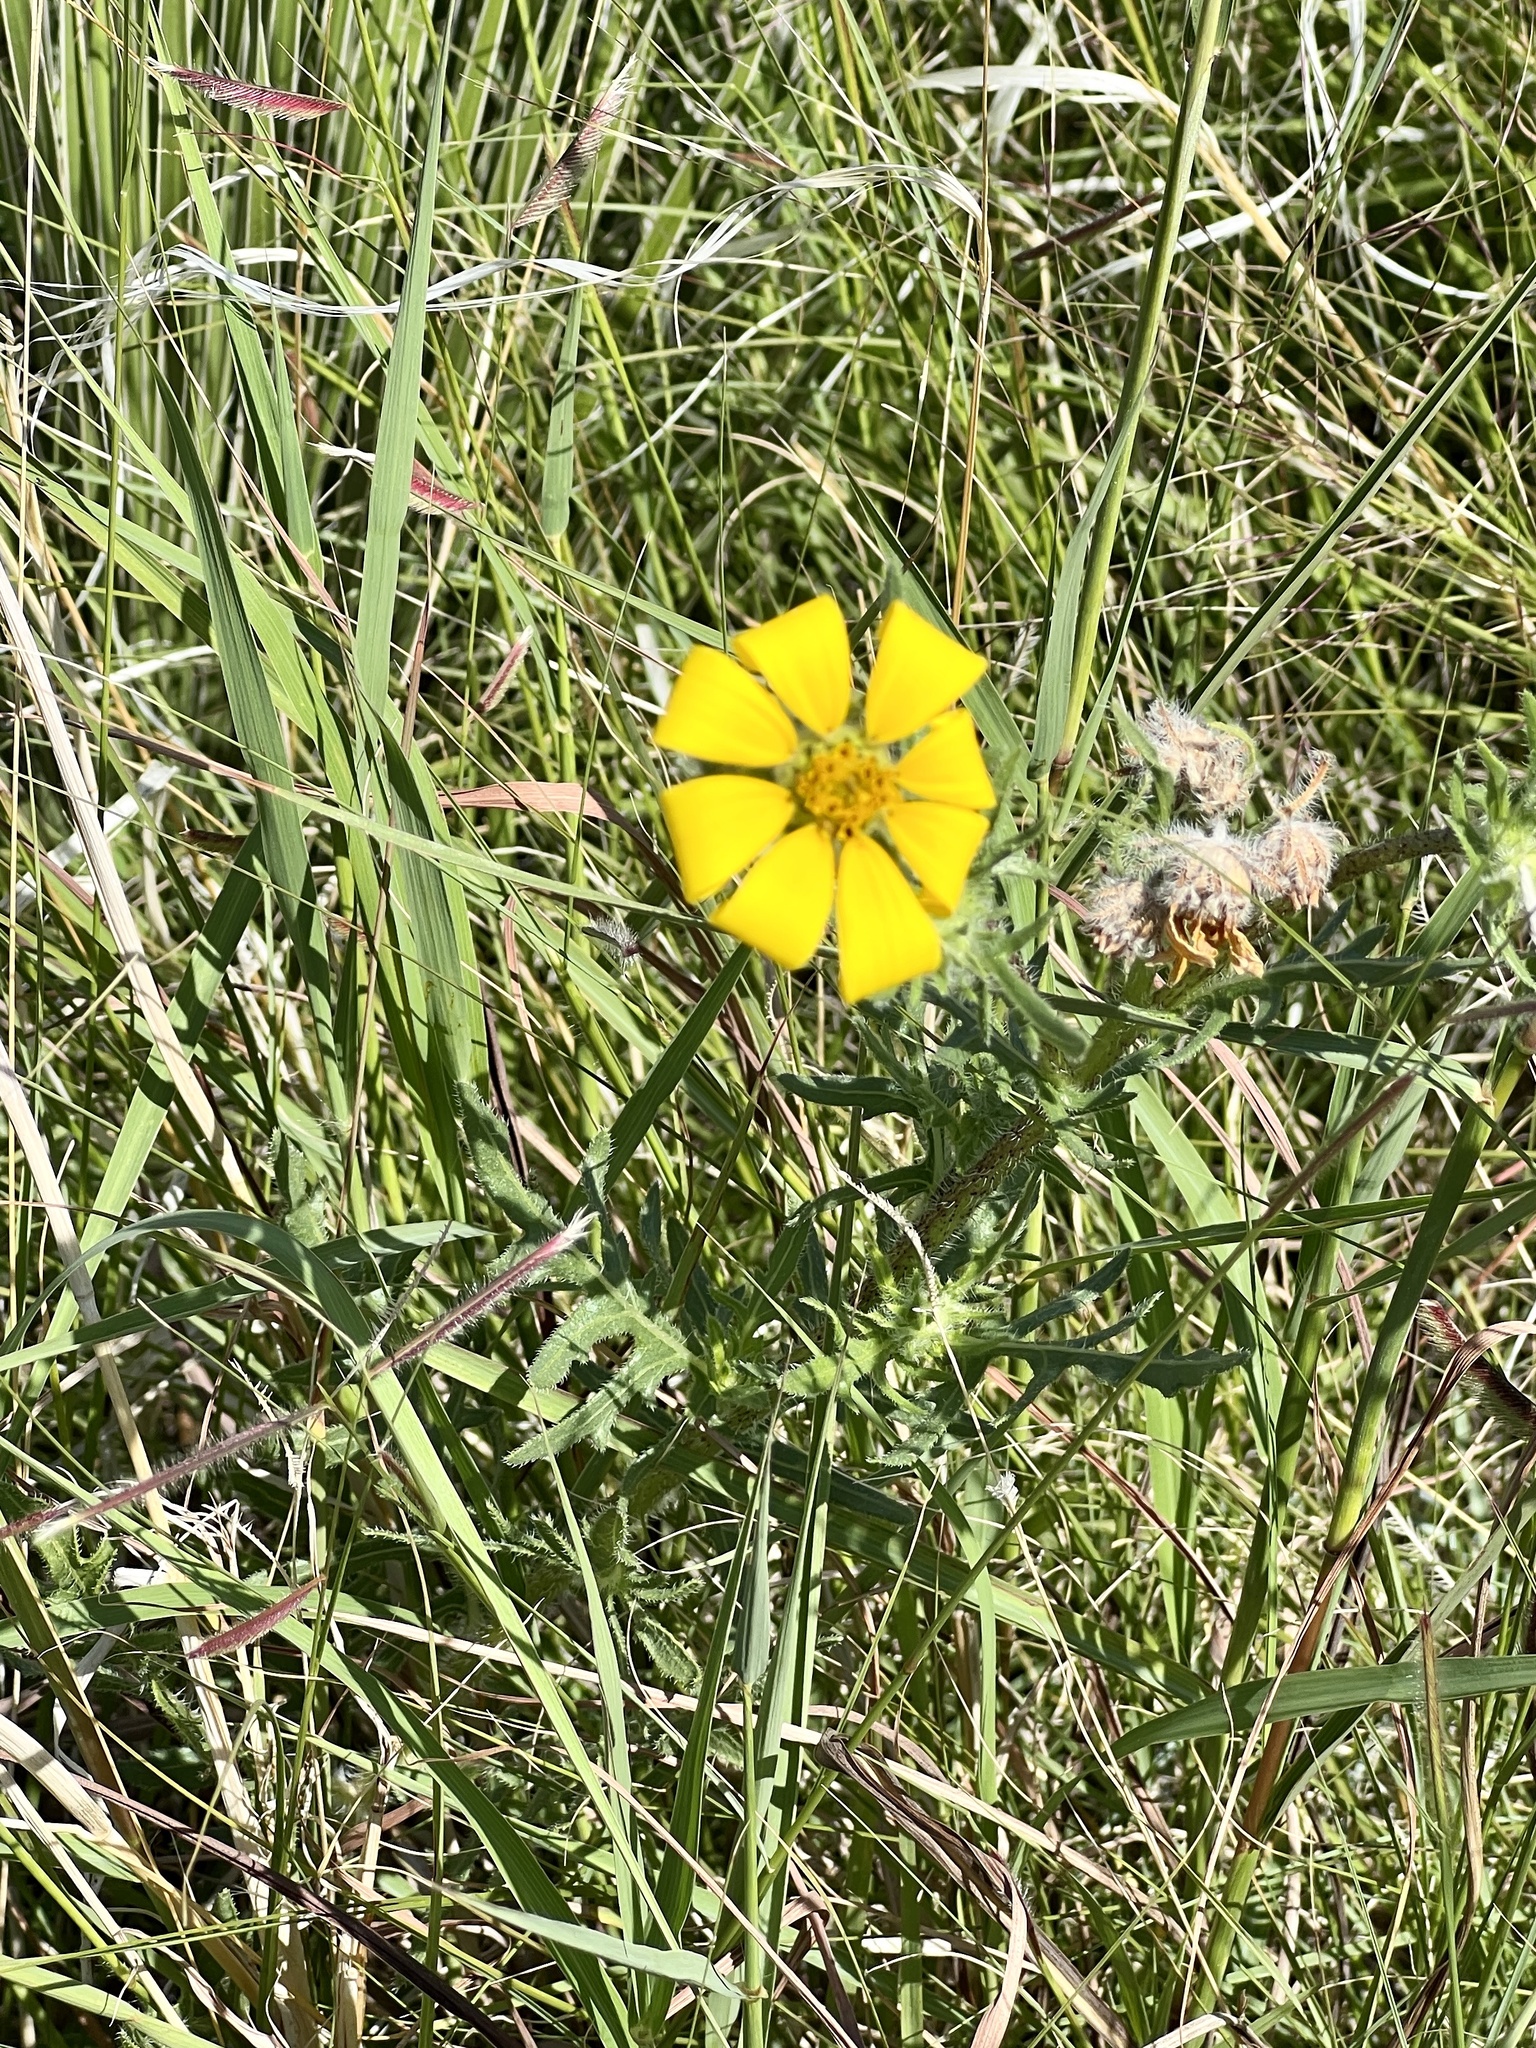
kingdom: Plantae
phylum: Tracheophyta
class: Magnoliopsida
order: Asterales
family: Asteraceae
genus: Engelmannia
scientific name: Engelmannia peristenia
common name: Engelmann's daisy
